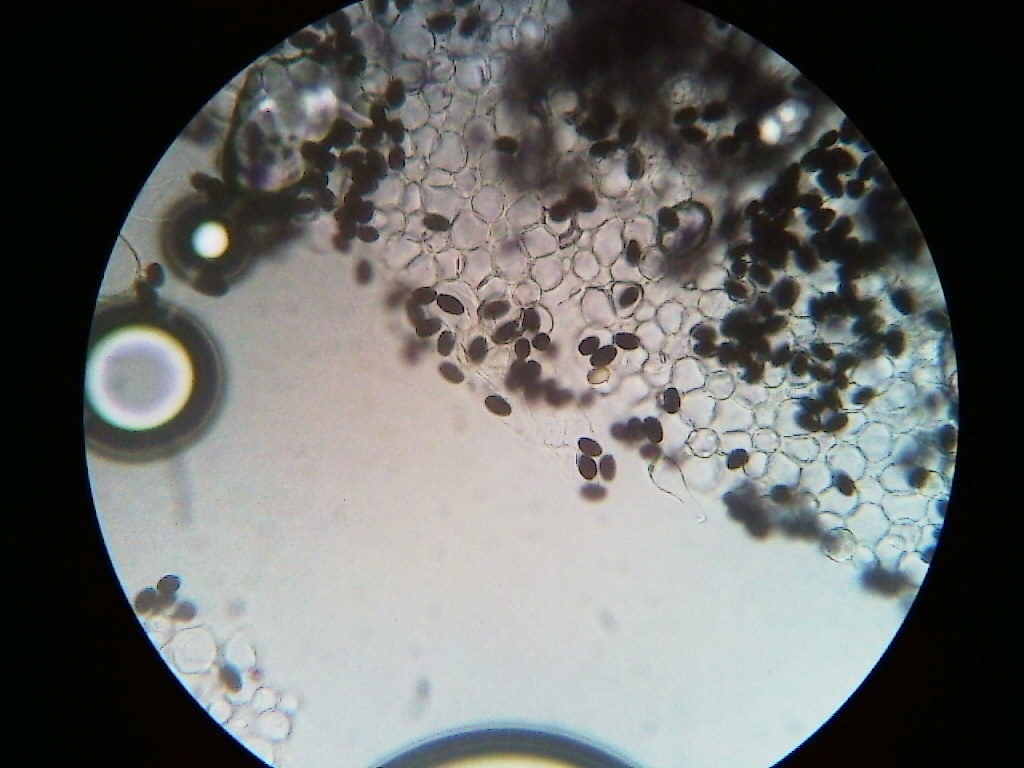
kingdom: Fungi
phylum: Basidiomycota
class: Agaricomycetes
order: Agaricales
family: Psathyrellaceae
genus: Psathyrella
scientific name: Psathyrella kauffmanii
